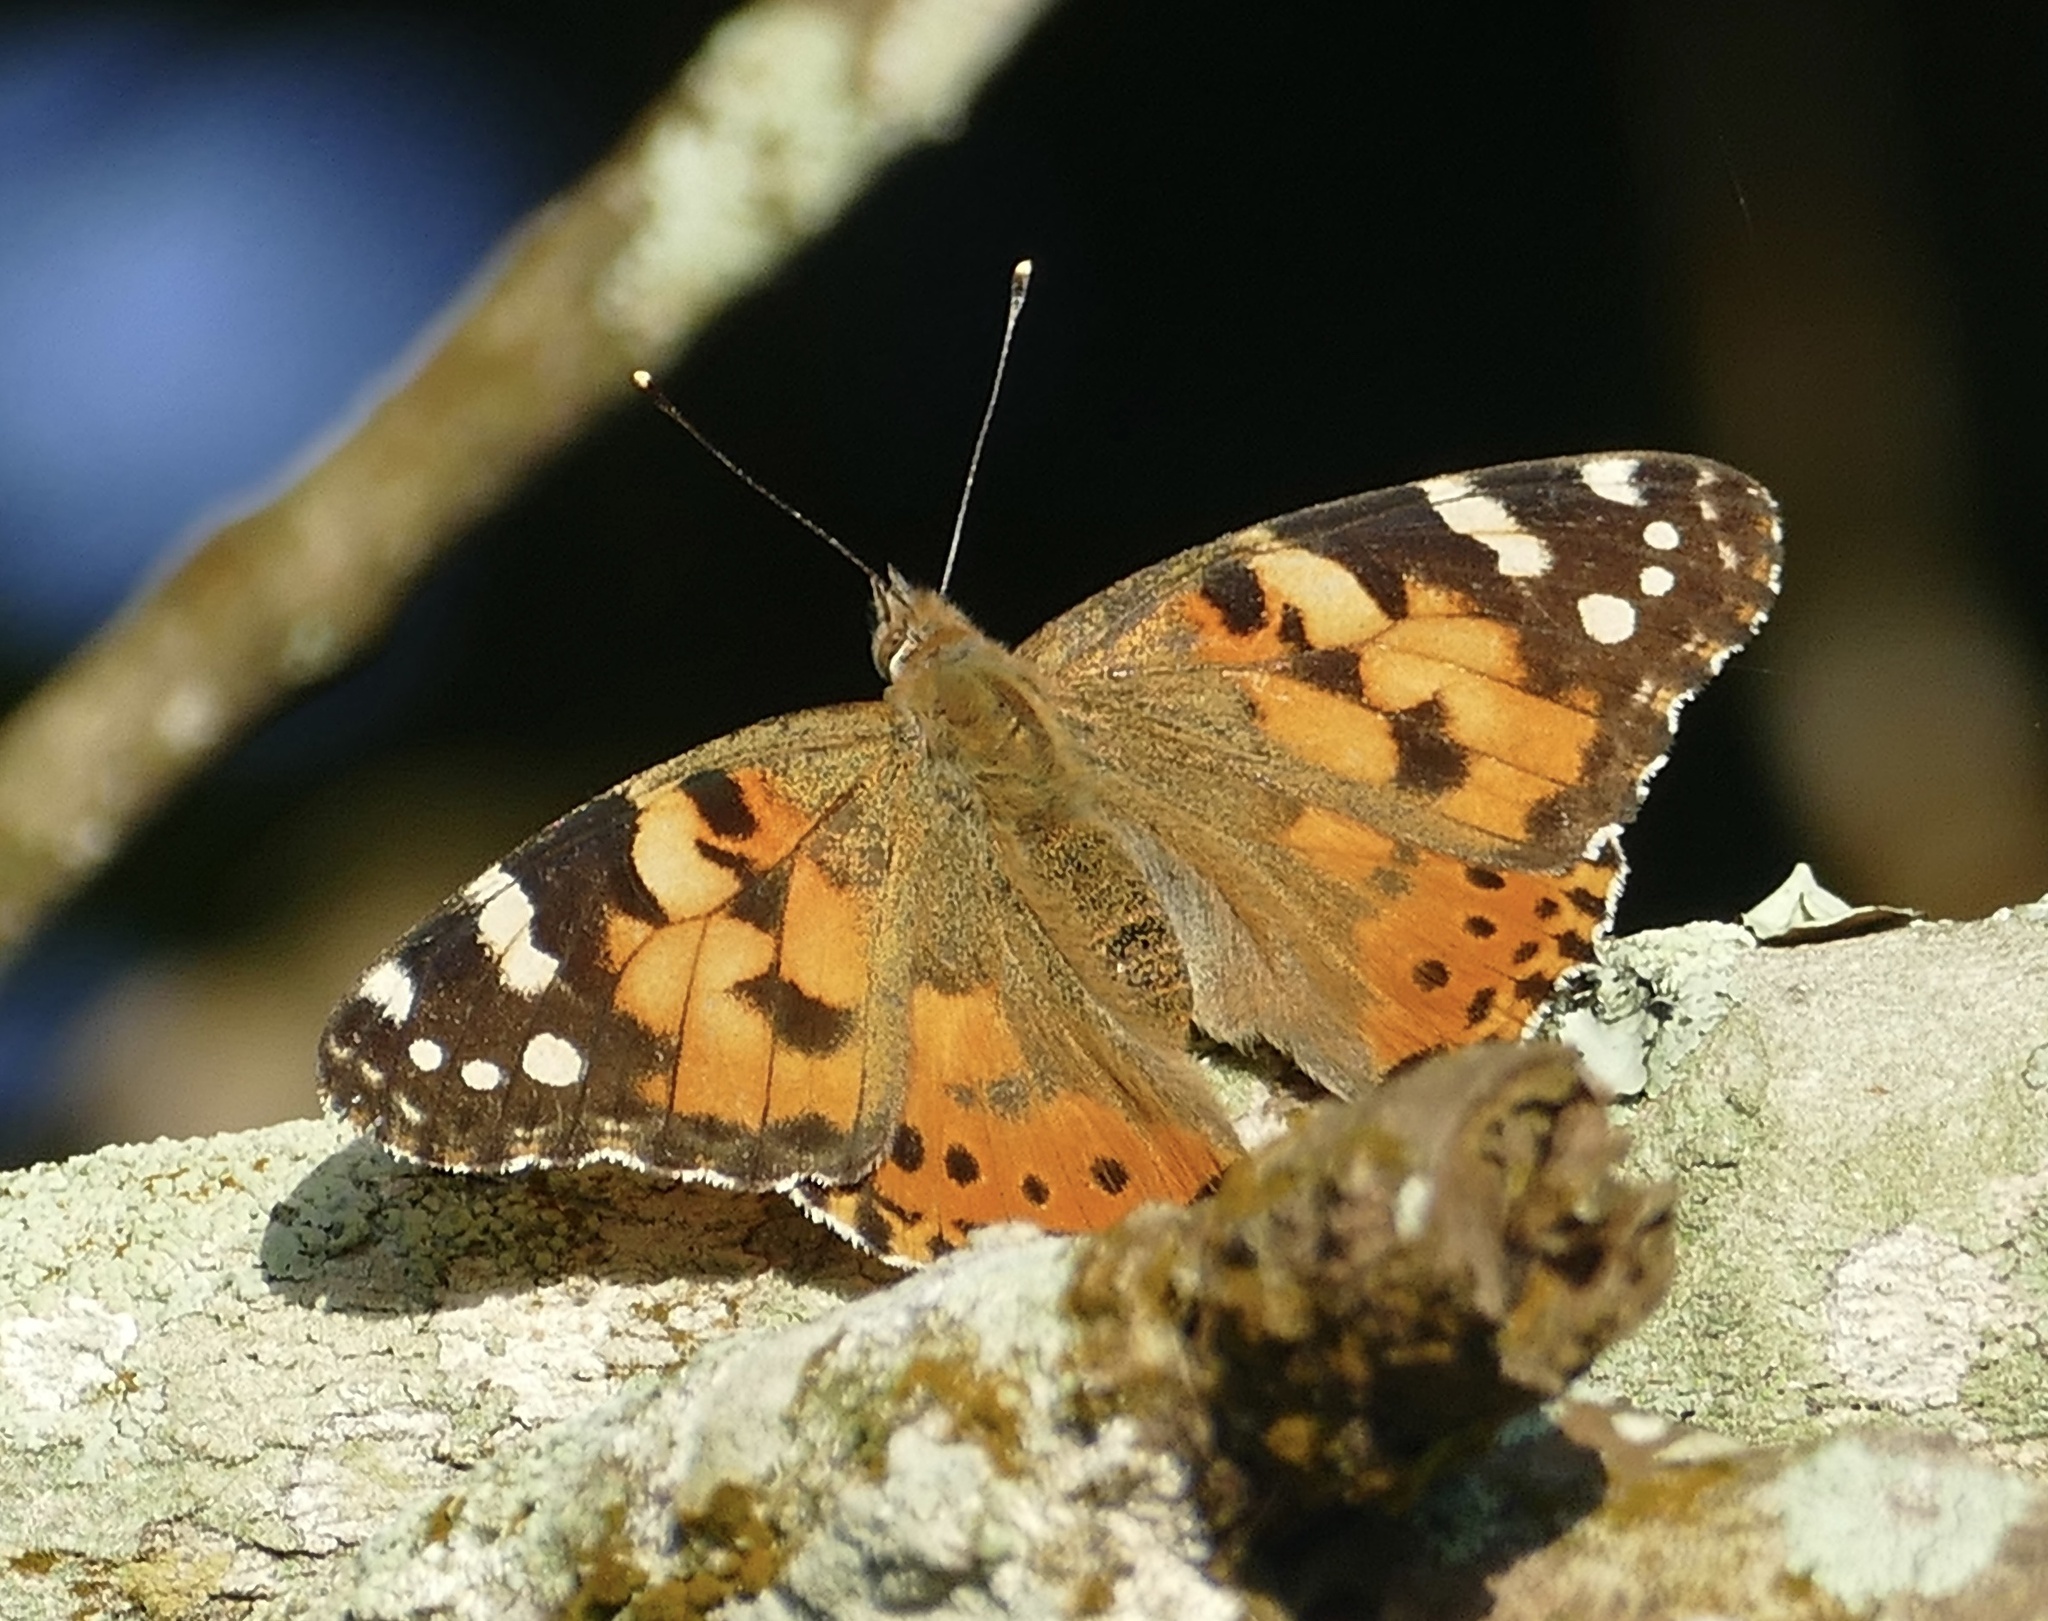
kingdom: Animalia
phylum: Arthropoda
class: Insecta
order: Lepidoptera
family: Nymphalidae
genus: Vanessa
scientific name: Vanessa cardui
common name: Painted lady
